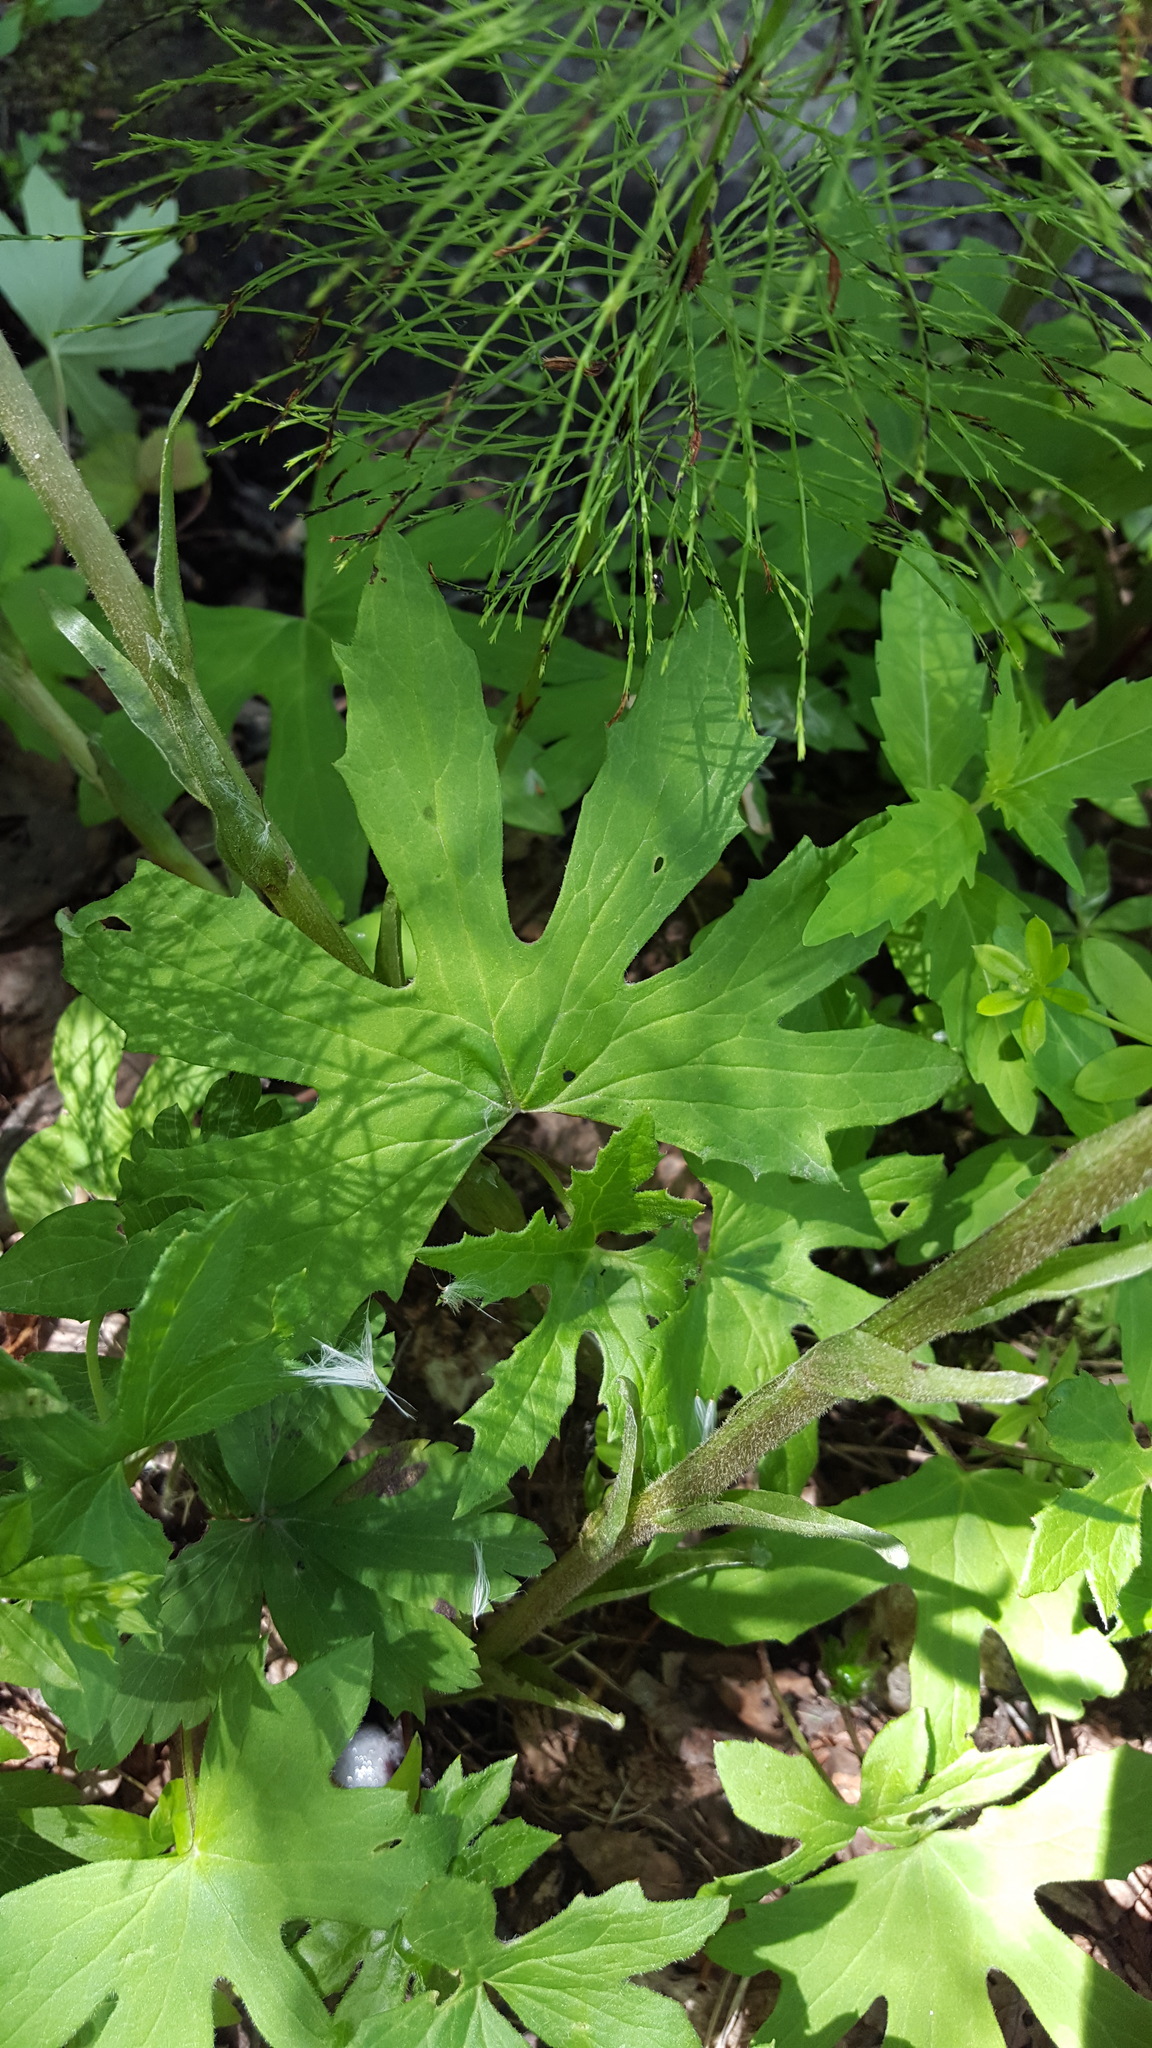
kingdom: Plantae
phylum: Tracheophyta
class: Magnoliopsida
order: Asterales
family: Asteraceae
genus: Petasites
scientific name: Petasites frigidus
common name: Arctic butterbur
